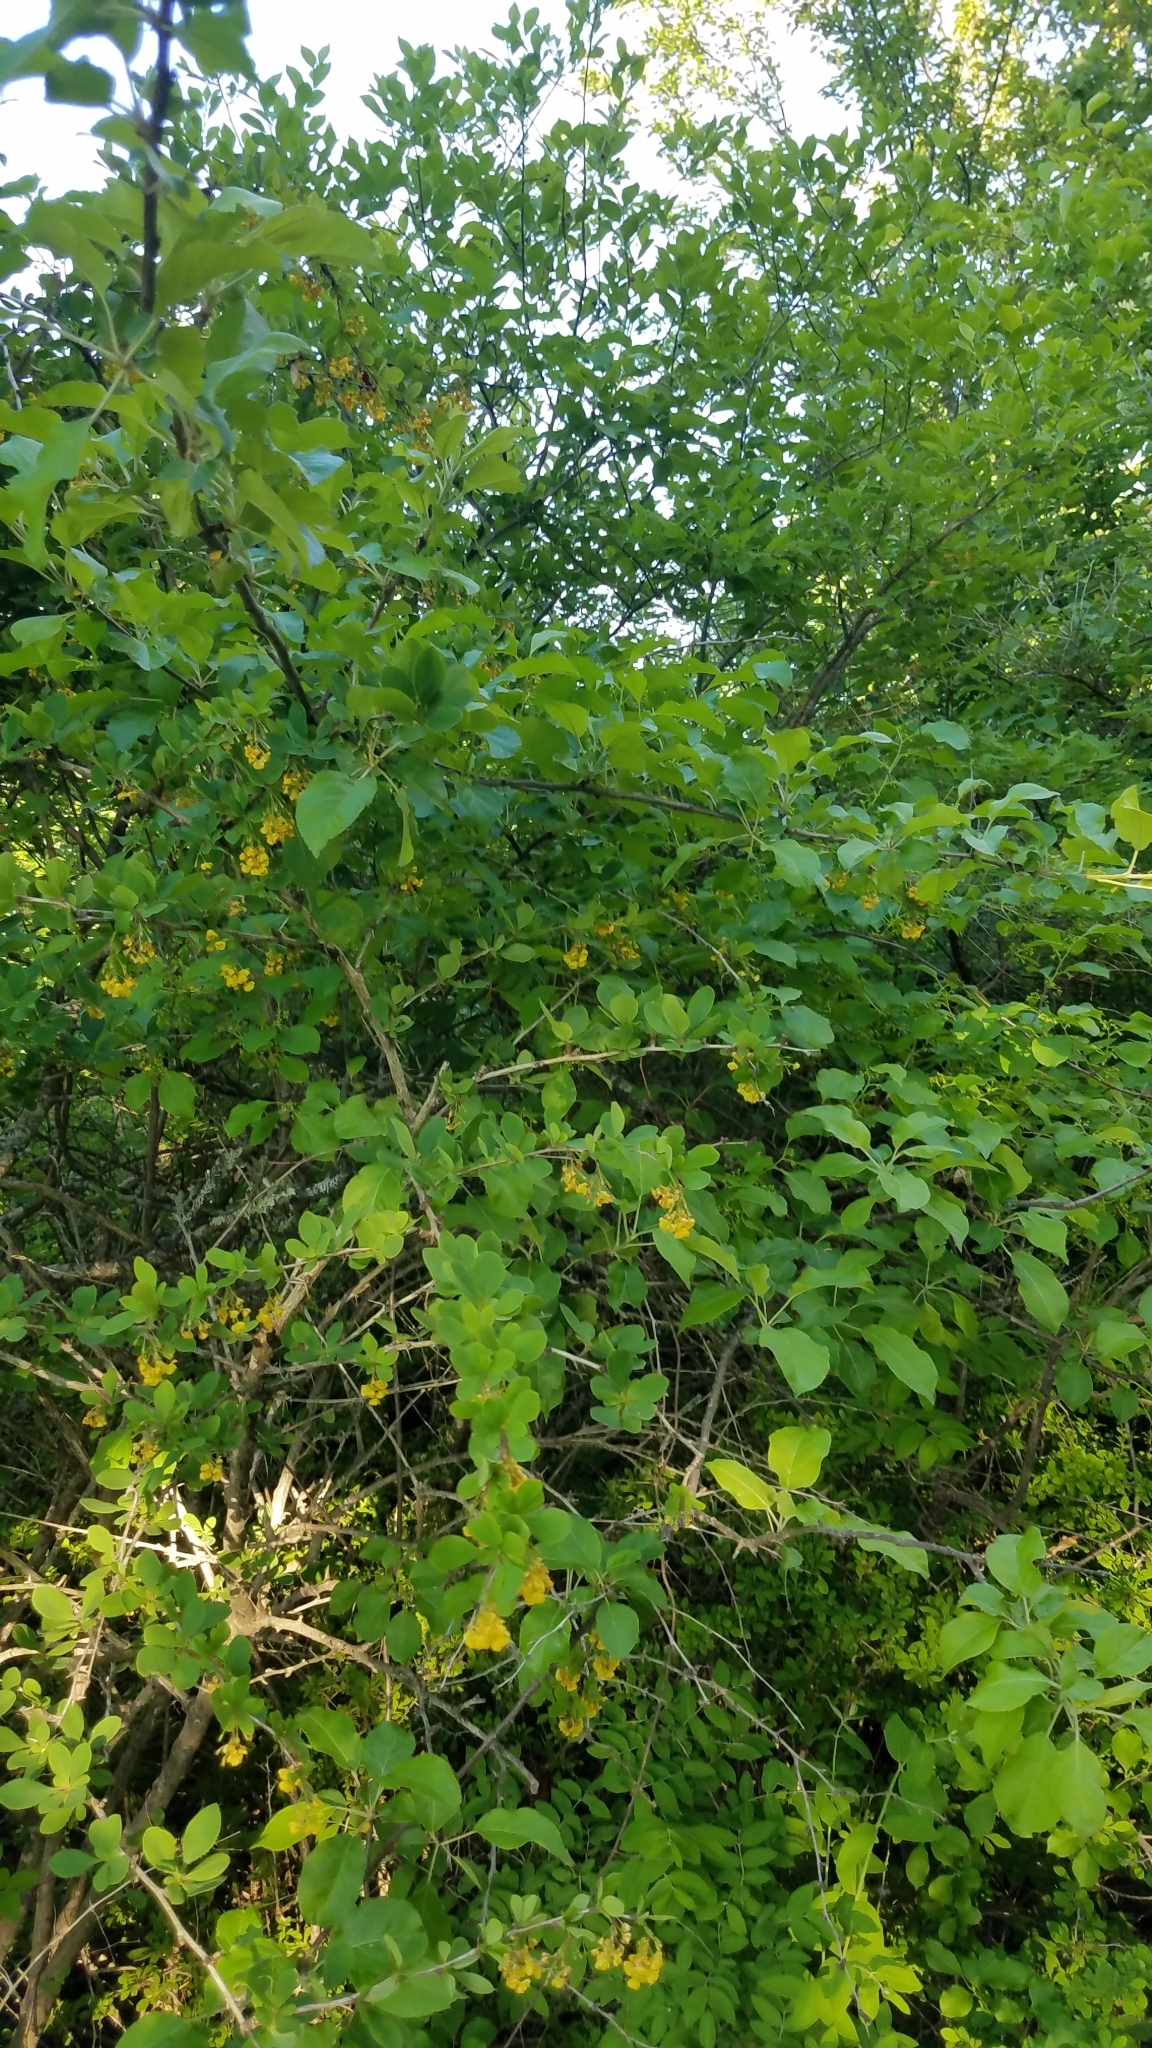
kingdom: Plantae
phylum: Tracheophyta
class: Magnoliopsida
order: Ranunculales
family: Berberidaceae
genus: Berberis
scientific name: Berberis vulgaris
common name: Barberry
